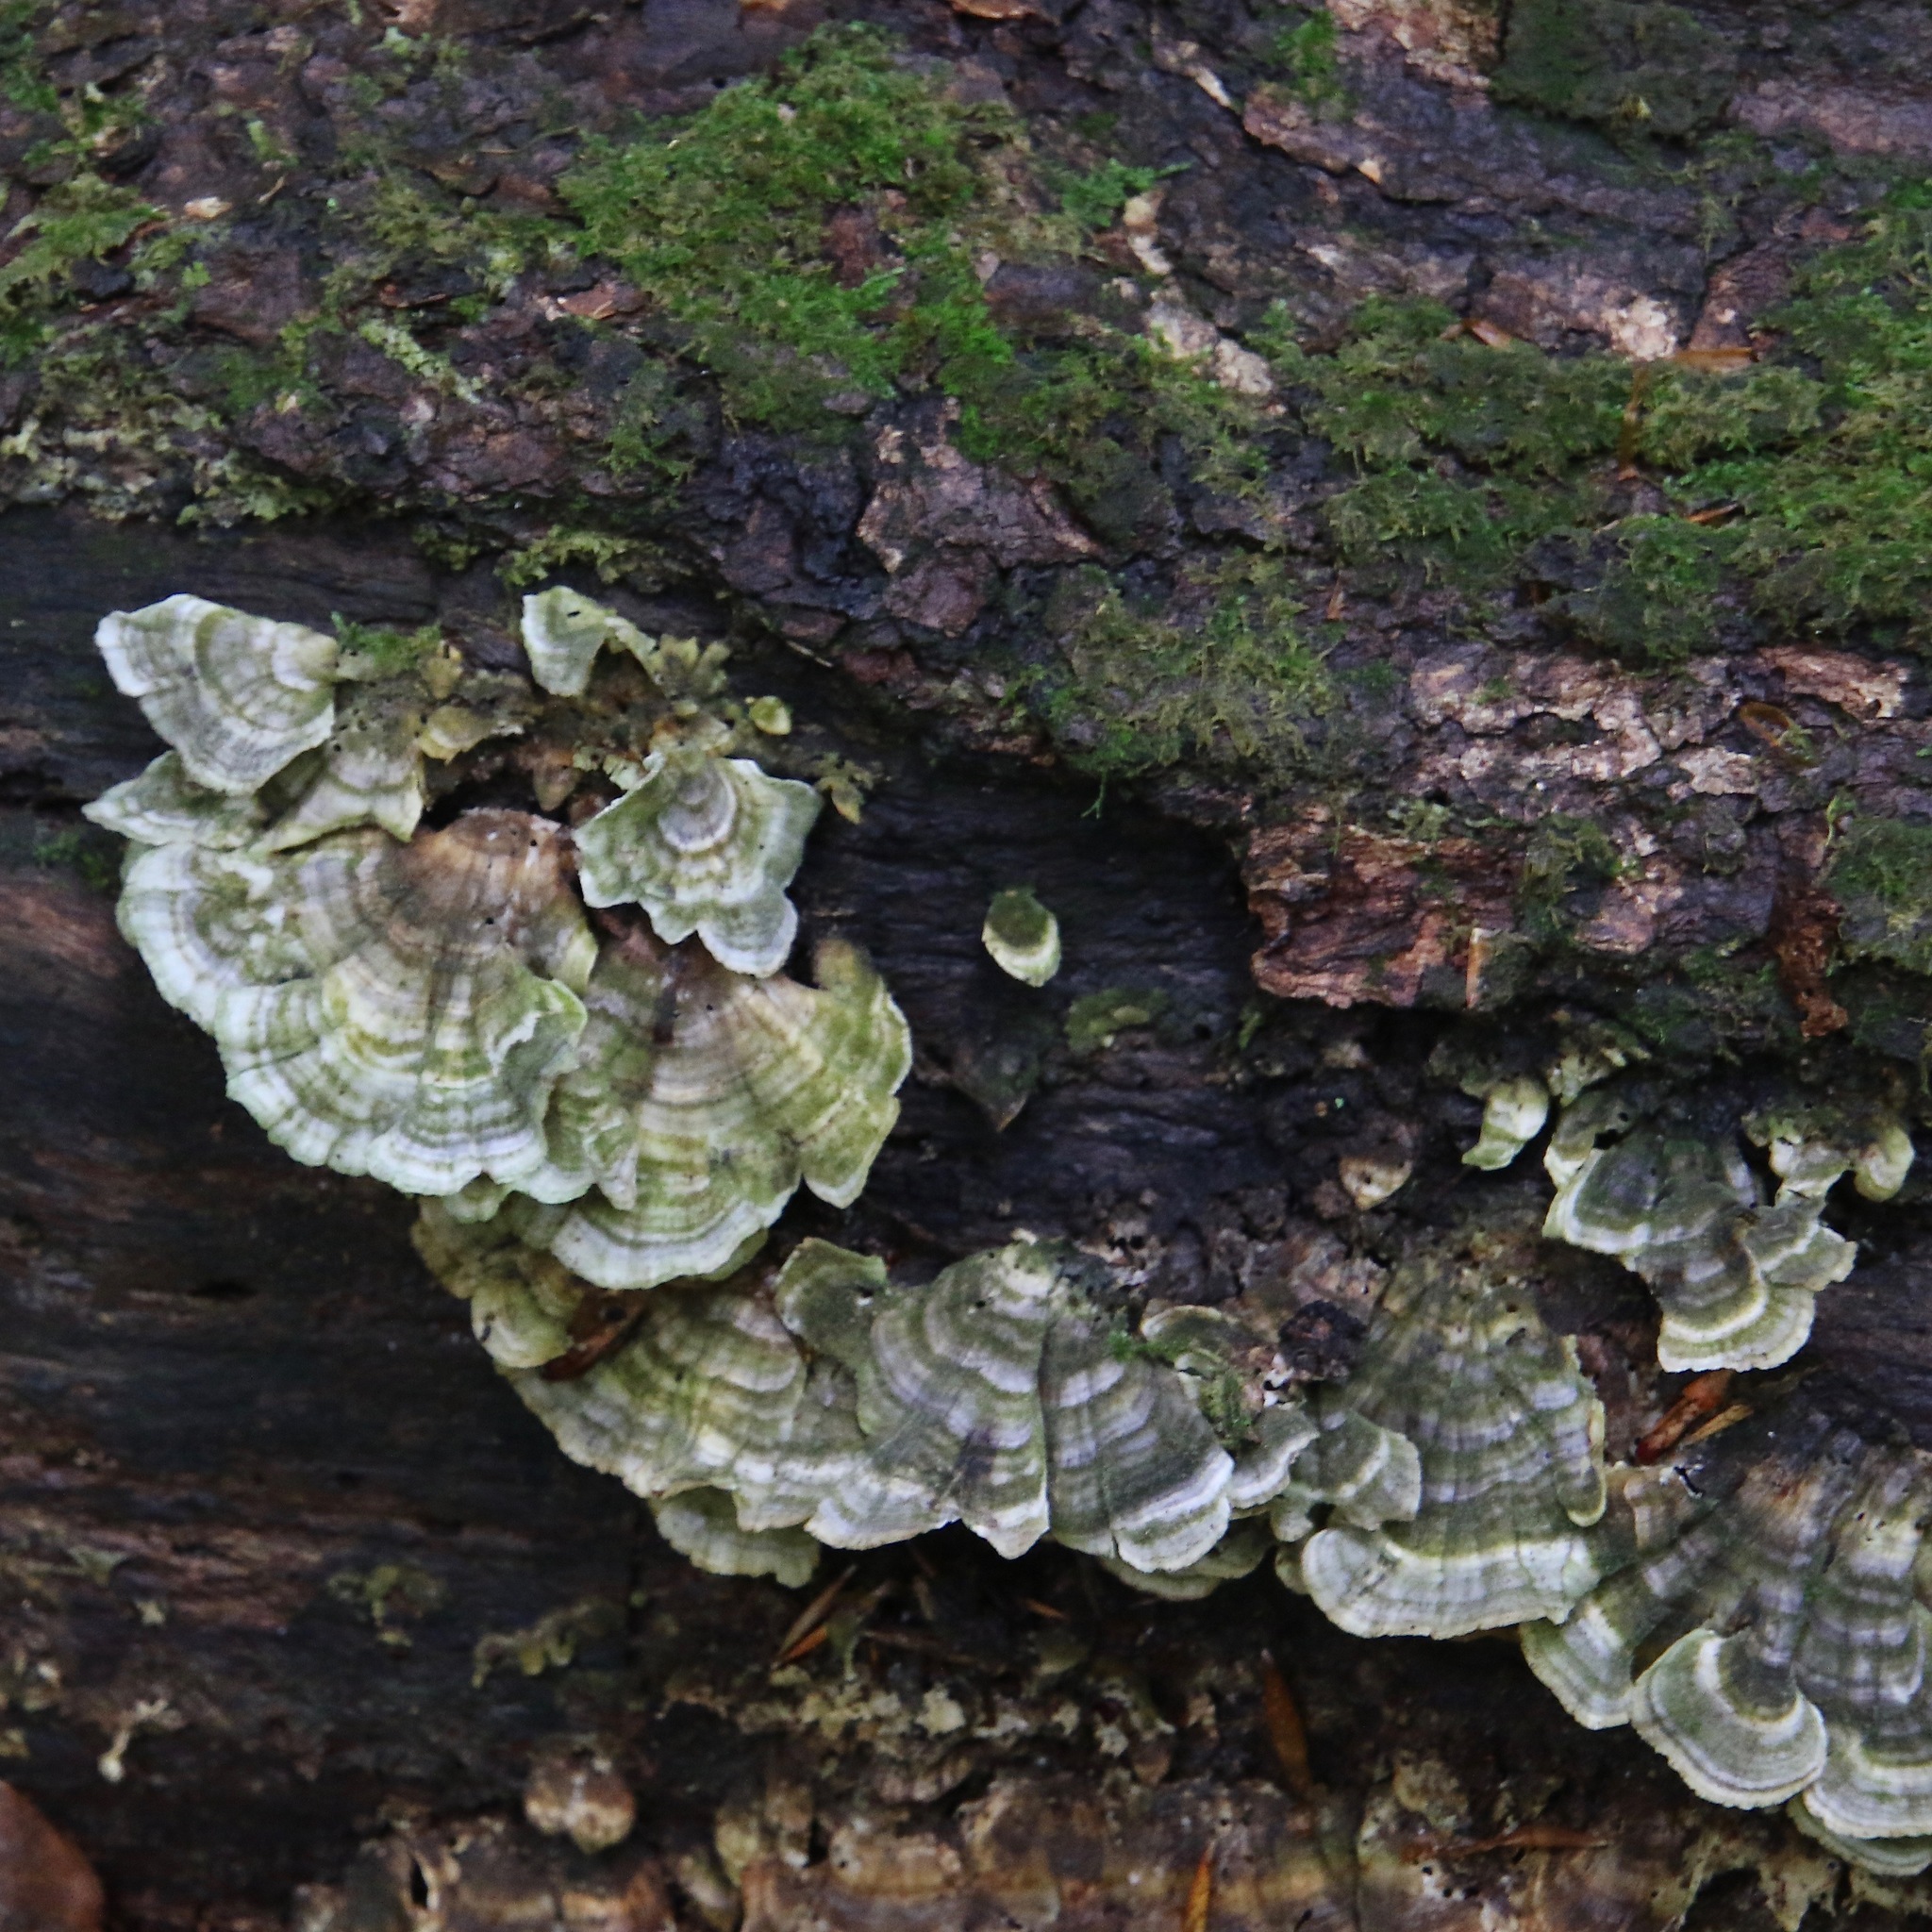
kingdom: Fungi
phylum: Basidiomycota
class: Agaricomycetes
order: Polyporales
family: Polyporaceae
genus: Trametes
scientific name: Trametes versicolor
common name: Turkeytail
